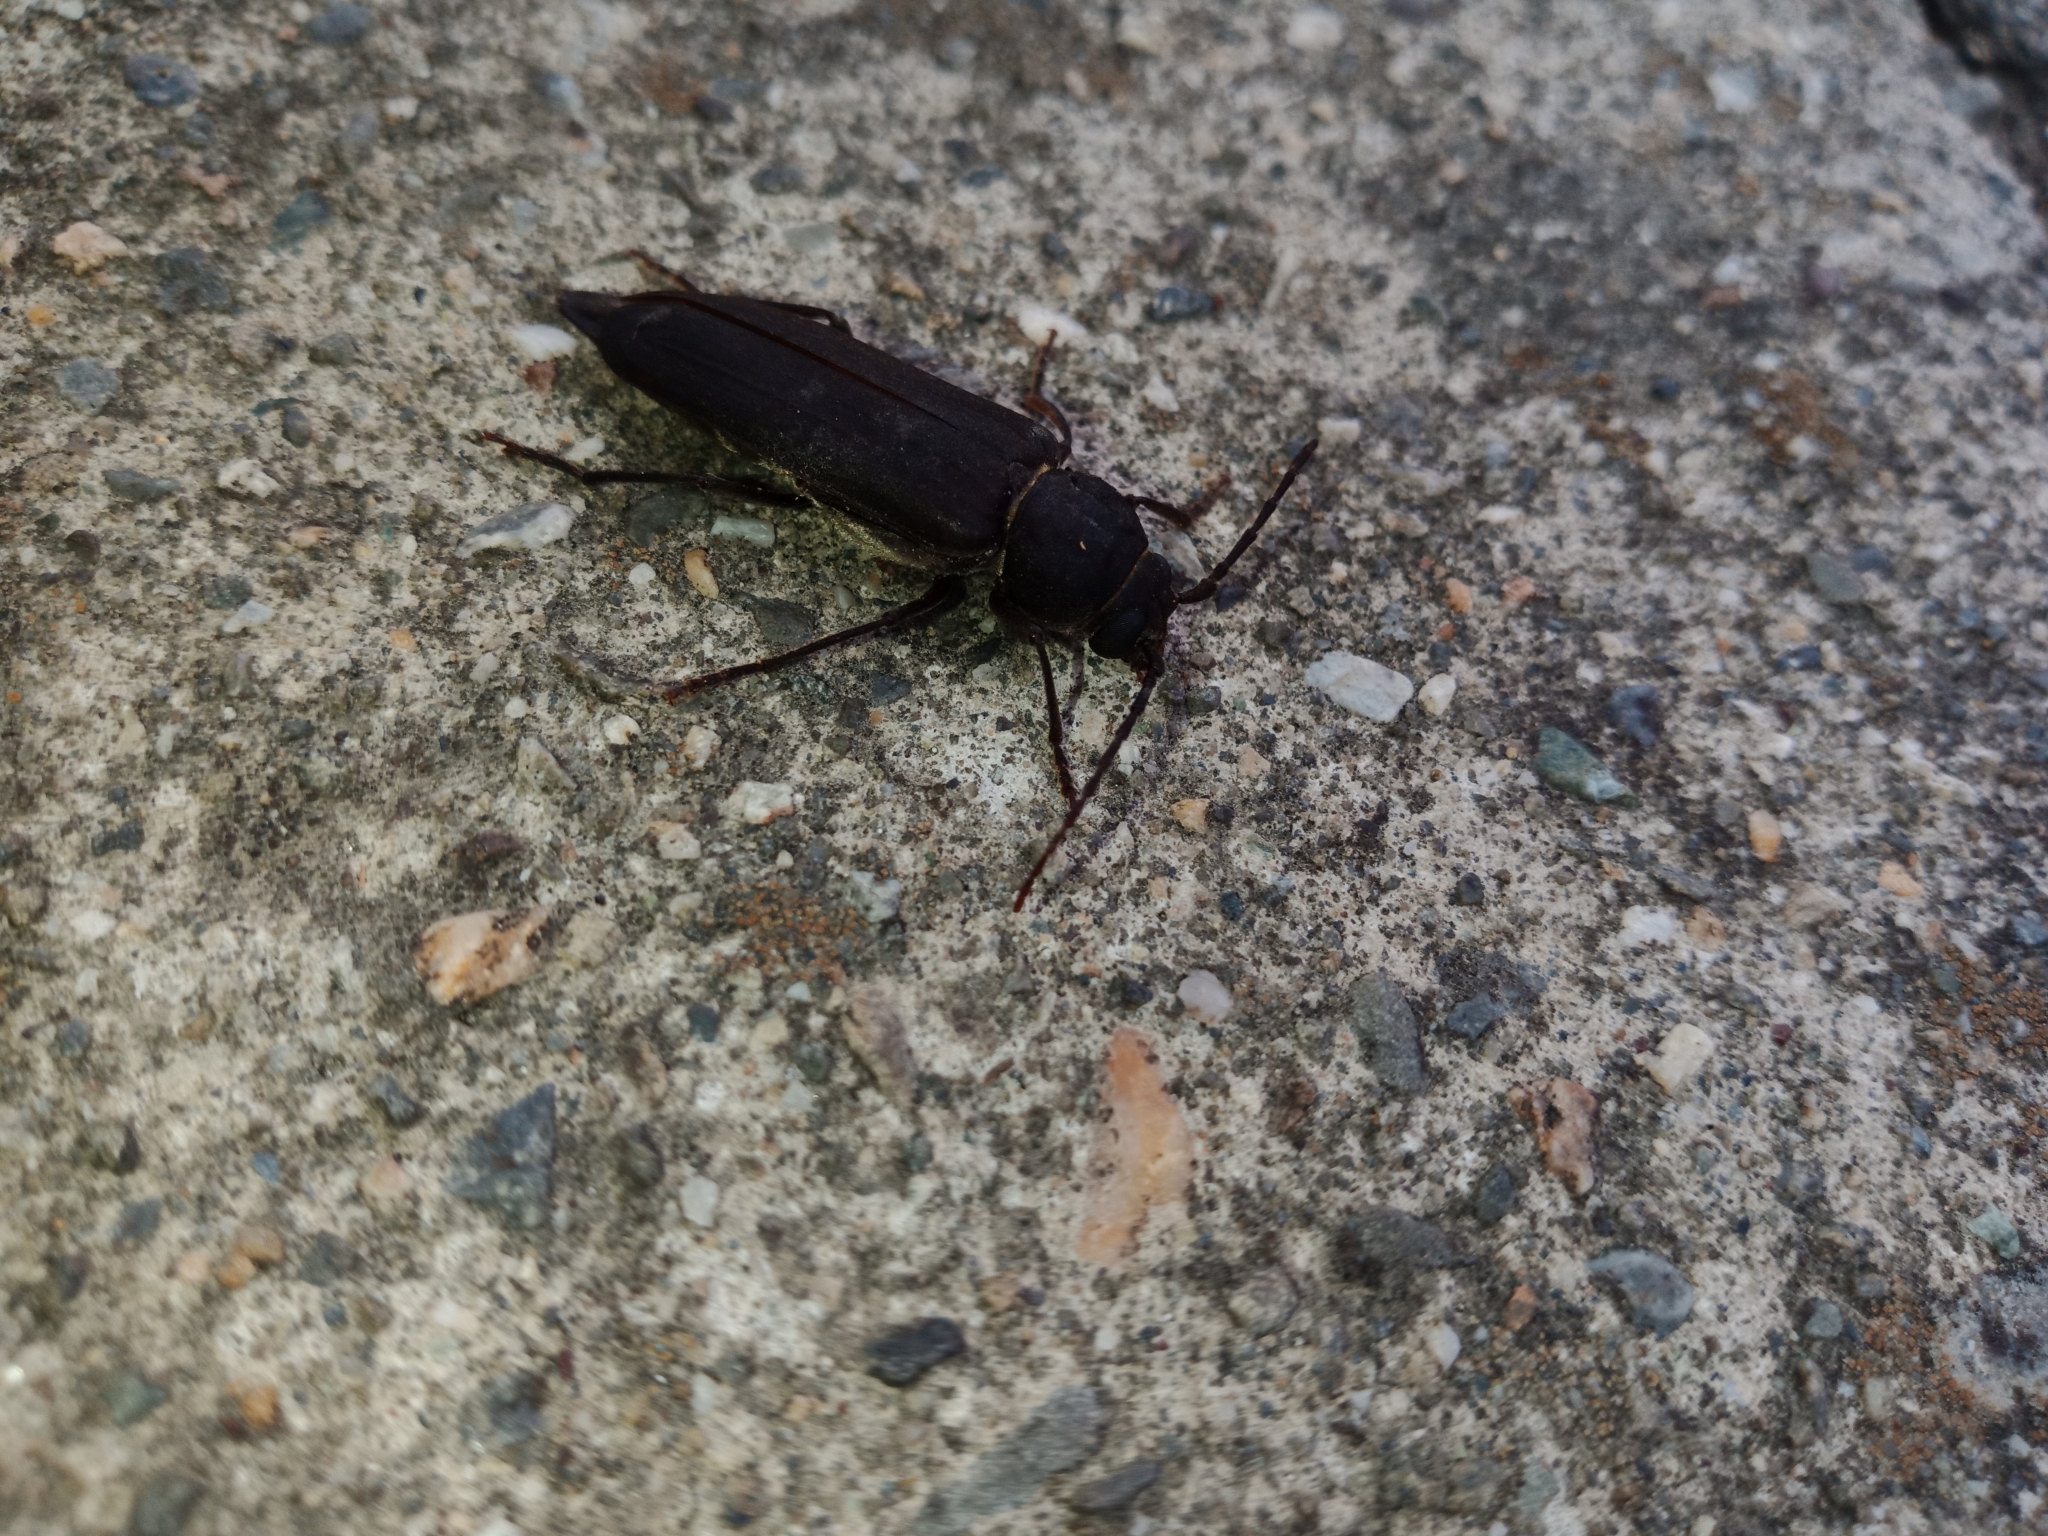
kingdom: Animalia
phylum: Arthropoda
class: Insecta
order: Coleoptera
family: Cerambycidae
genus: Arhopalus
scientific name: Arhopalus ferus
